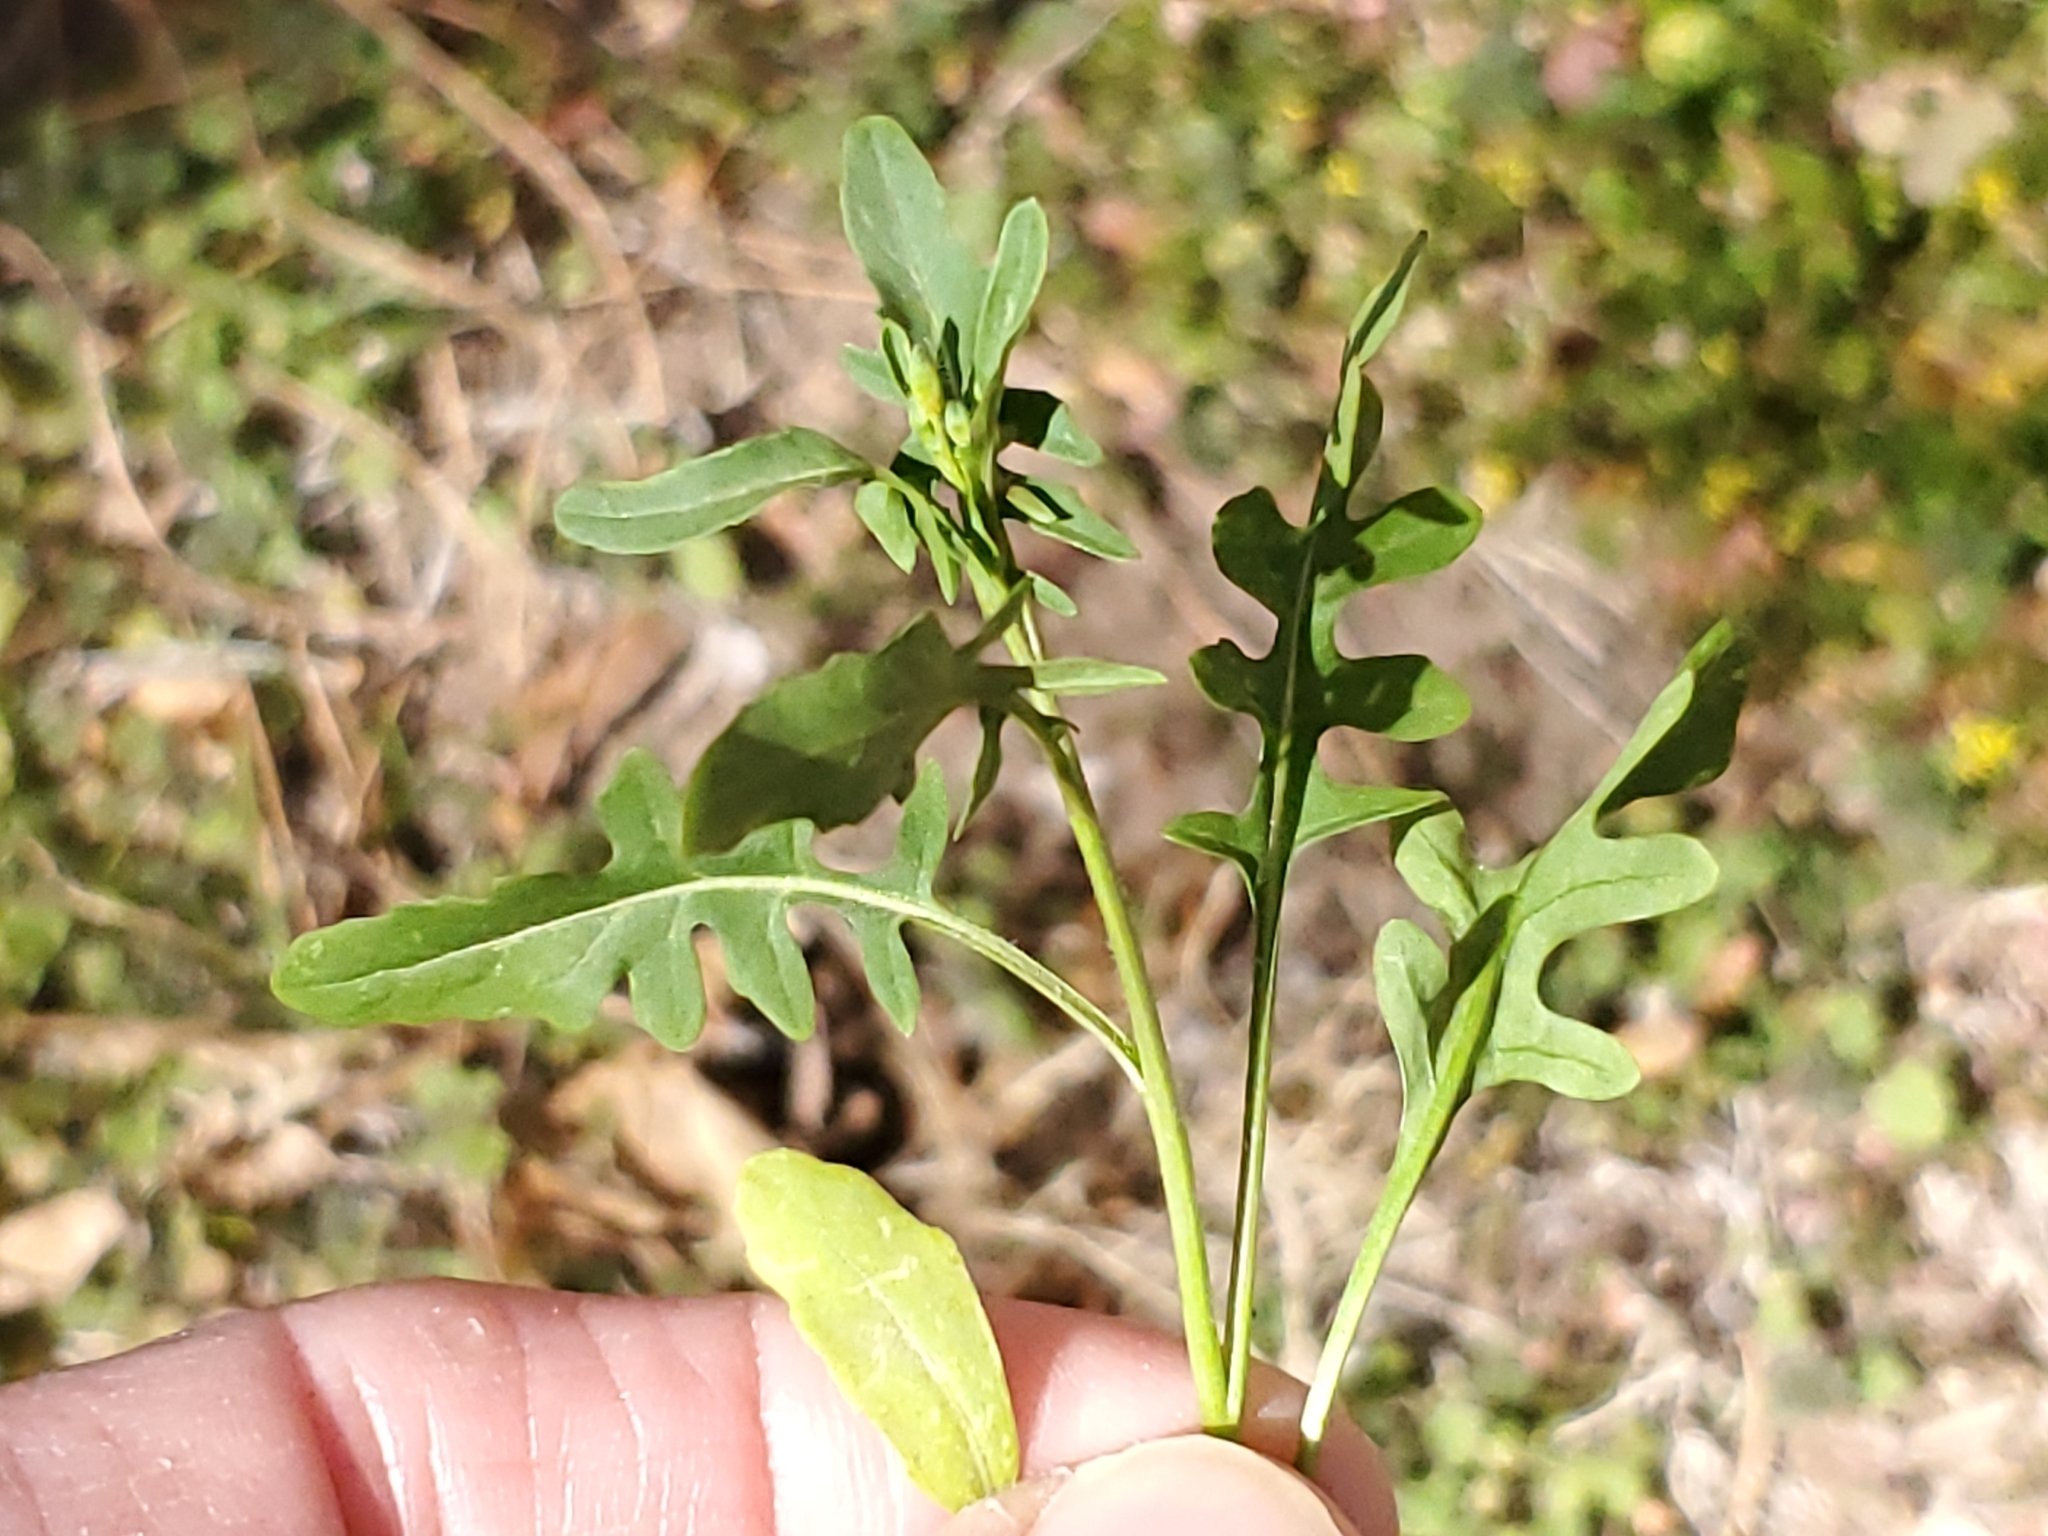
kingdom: Plantae
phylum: Tracheophyta
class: Magnoliopsida
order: Brassicales
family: Brassicaceae
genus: Sisymbrium
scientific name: Sisymbrium irio
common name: London rocket
